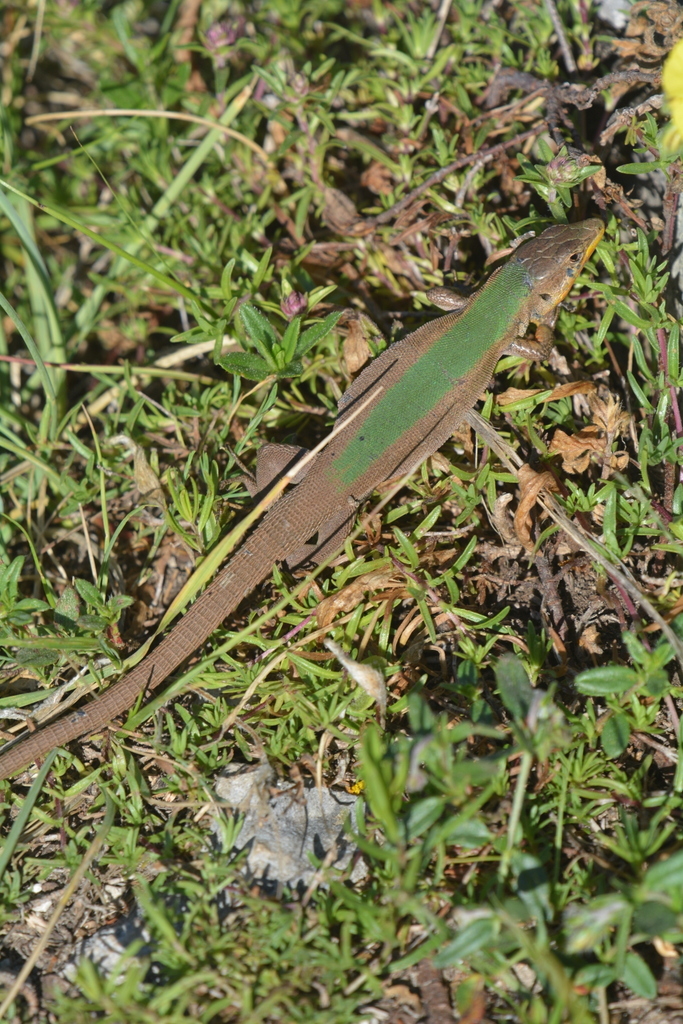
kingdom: Animalia
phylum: Chordata
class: Squamata
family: Lacertidae
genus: Podarcis
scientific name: Podarcis melisellensis
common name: Dalmatian wall lizard
